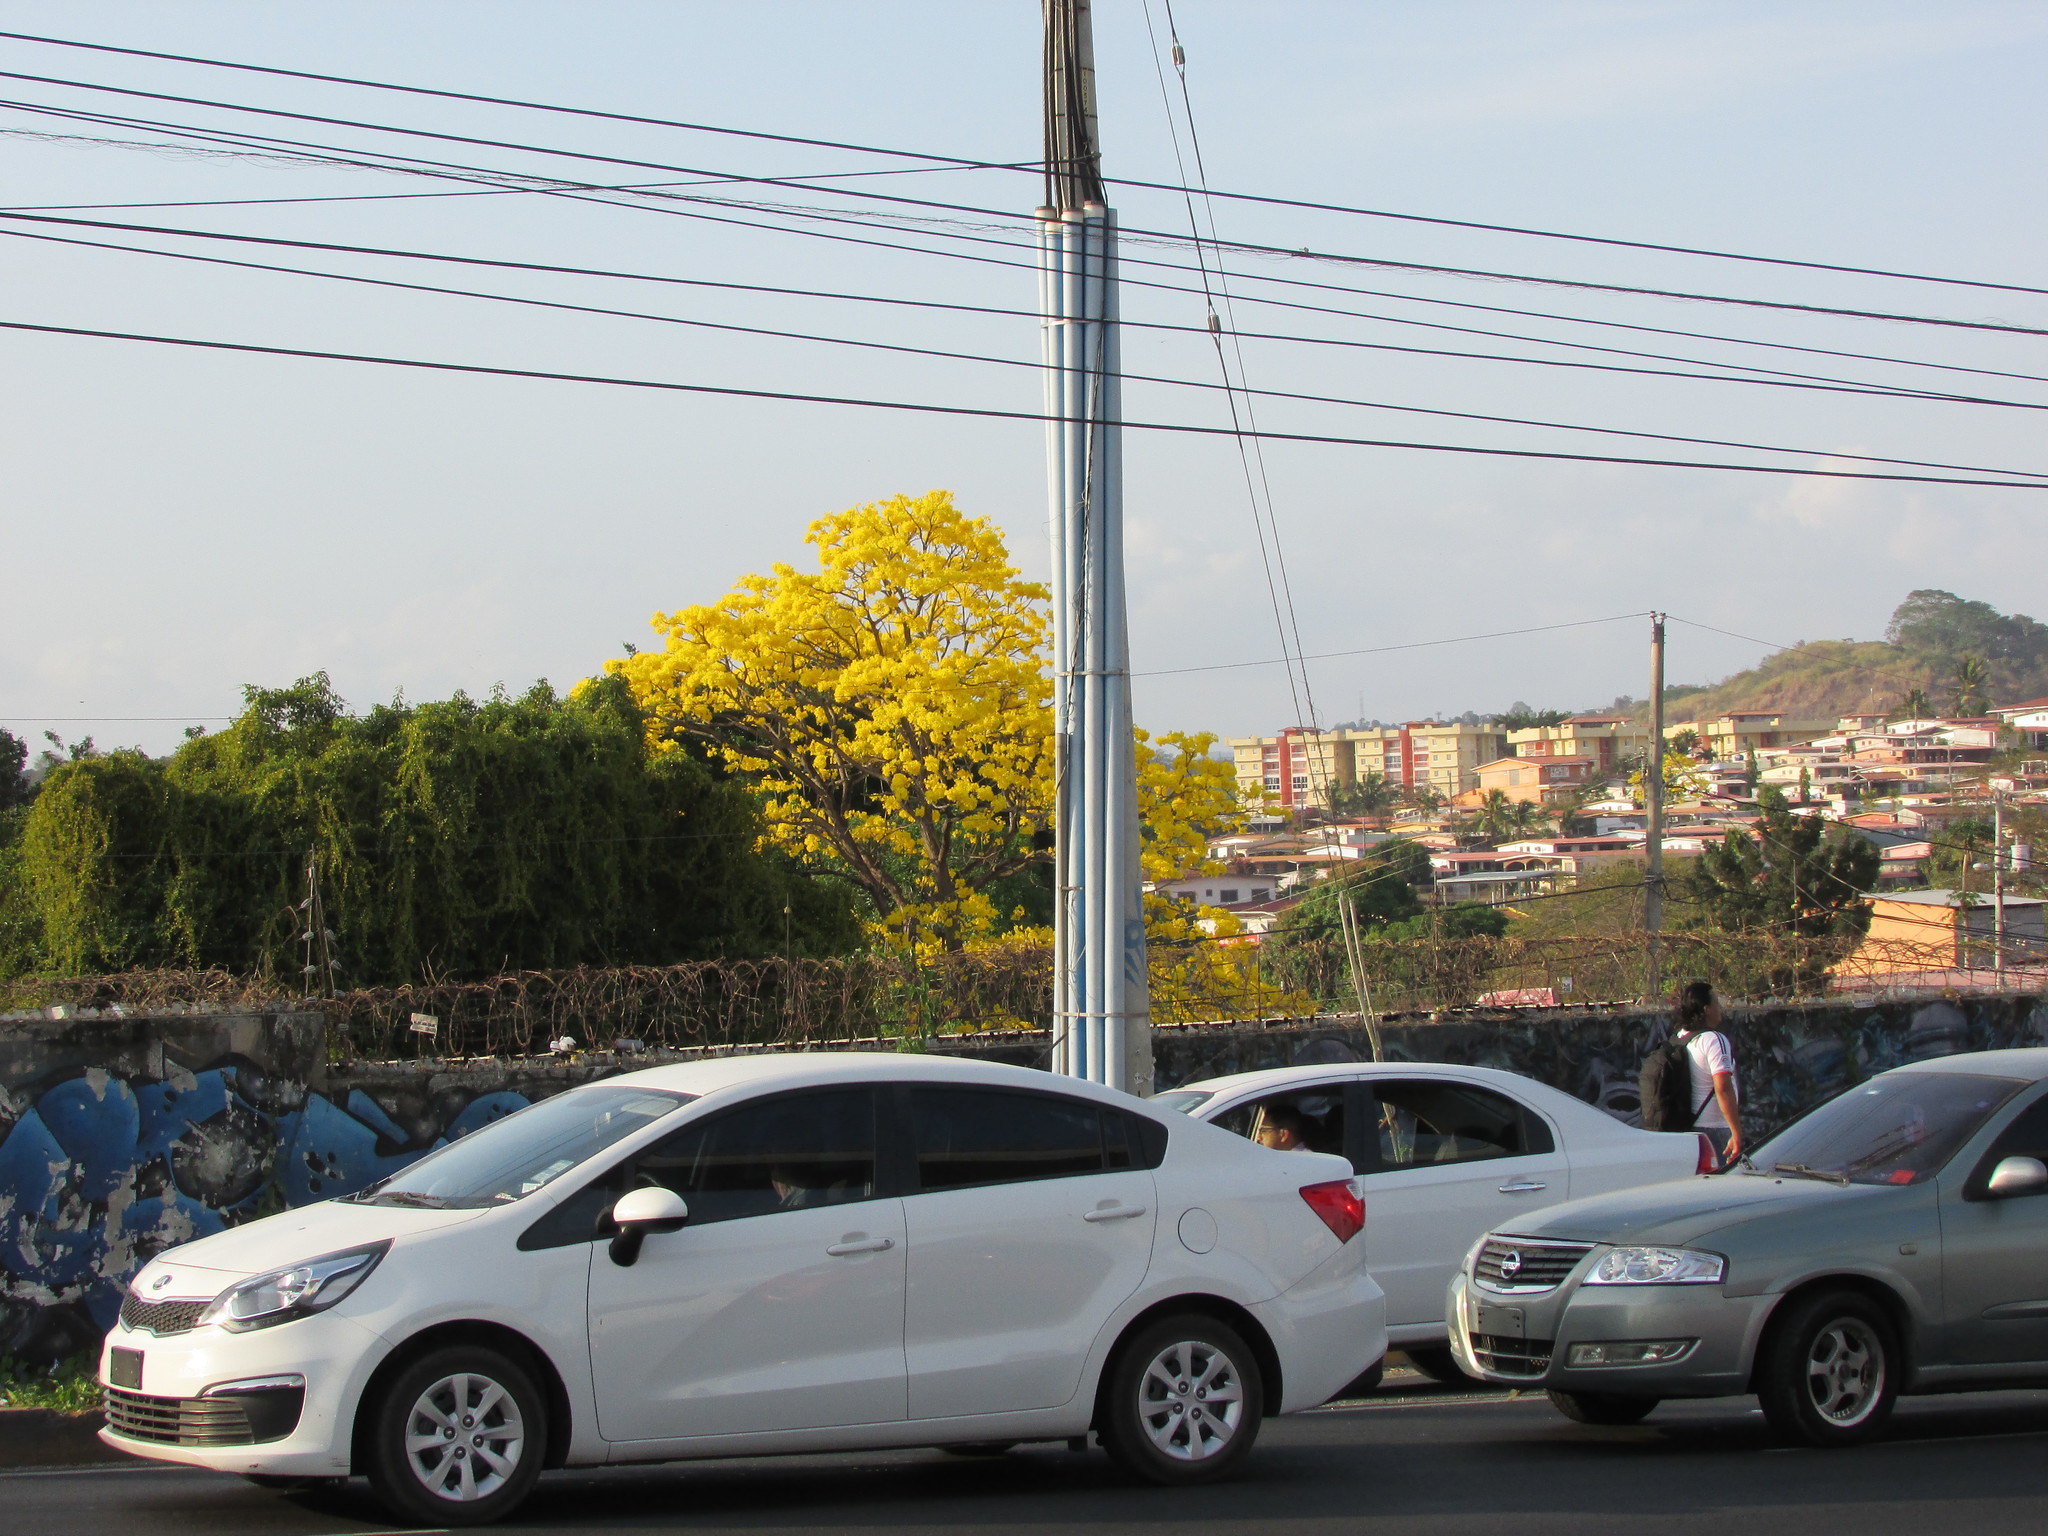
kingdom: Plantae
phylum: Tracheophyta
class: Magnoliopsida
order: Lamiales
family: Bignoniaceae
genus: Handroanthus
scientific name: Handroanthus guayacan
